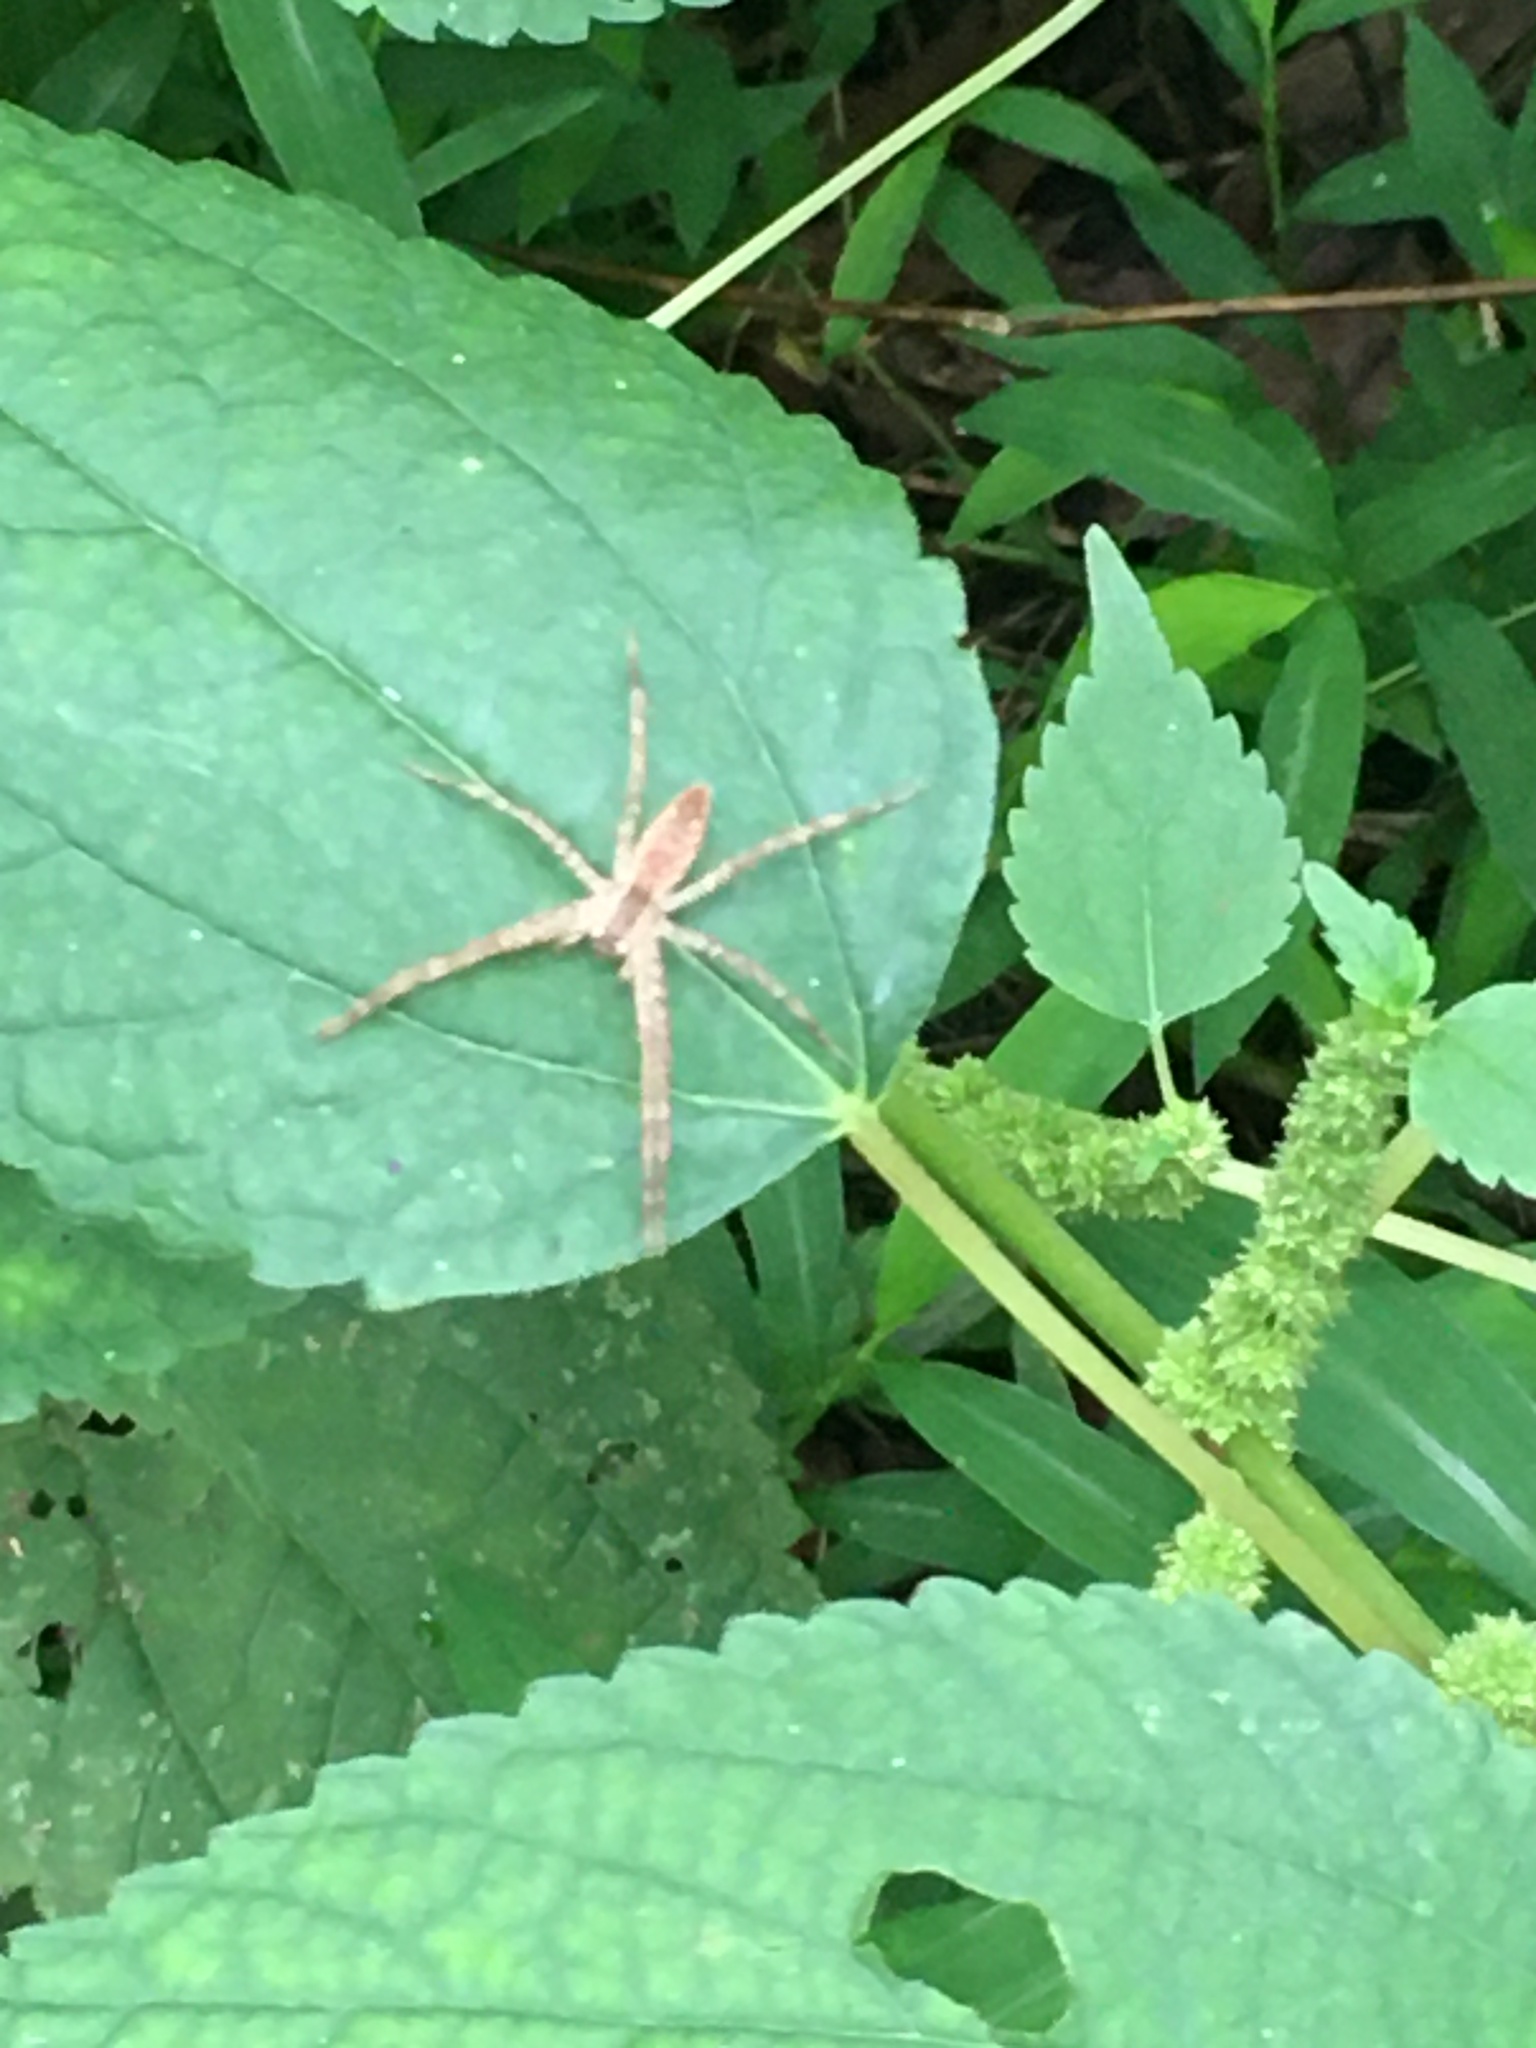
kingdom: Animalia
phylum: Arthropoda
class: Arachnida
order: Araneae
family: Pisauridae
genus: Pisaurina
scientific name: Pisaurina mira
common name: American nursery web spider
